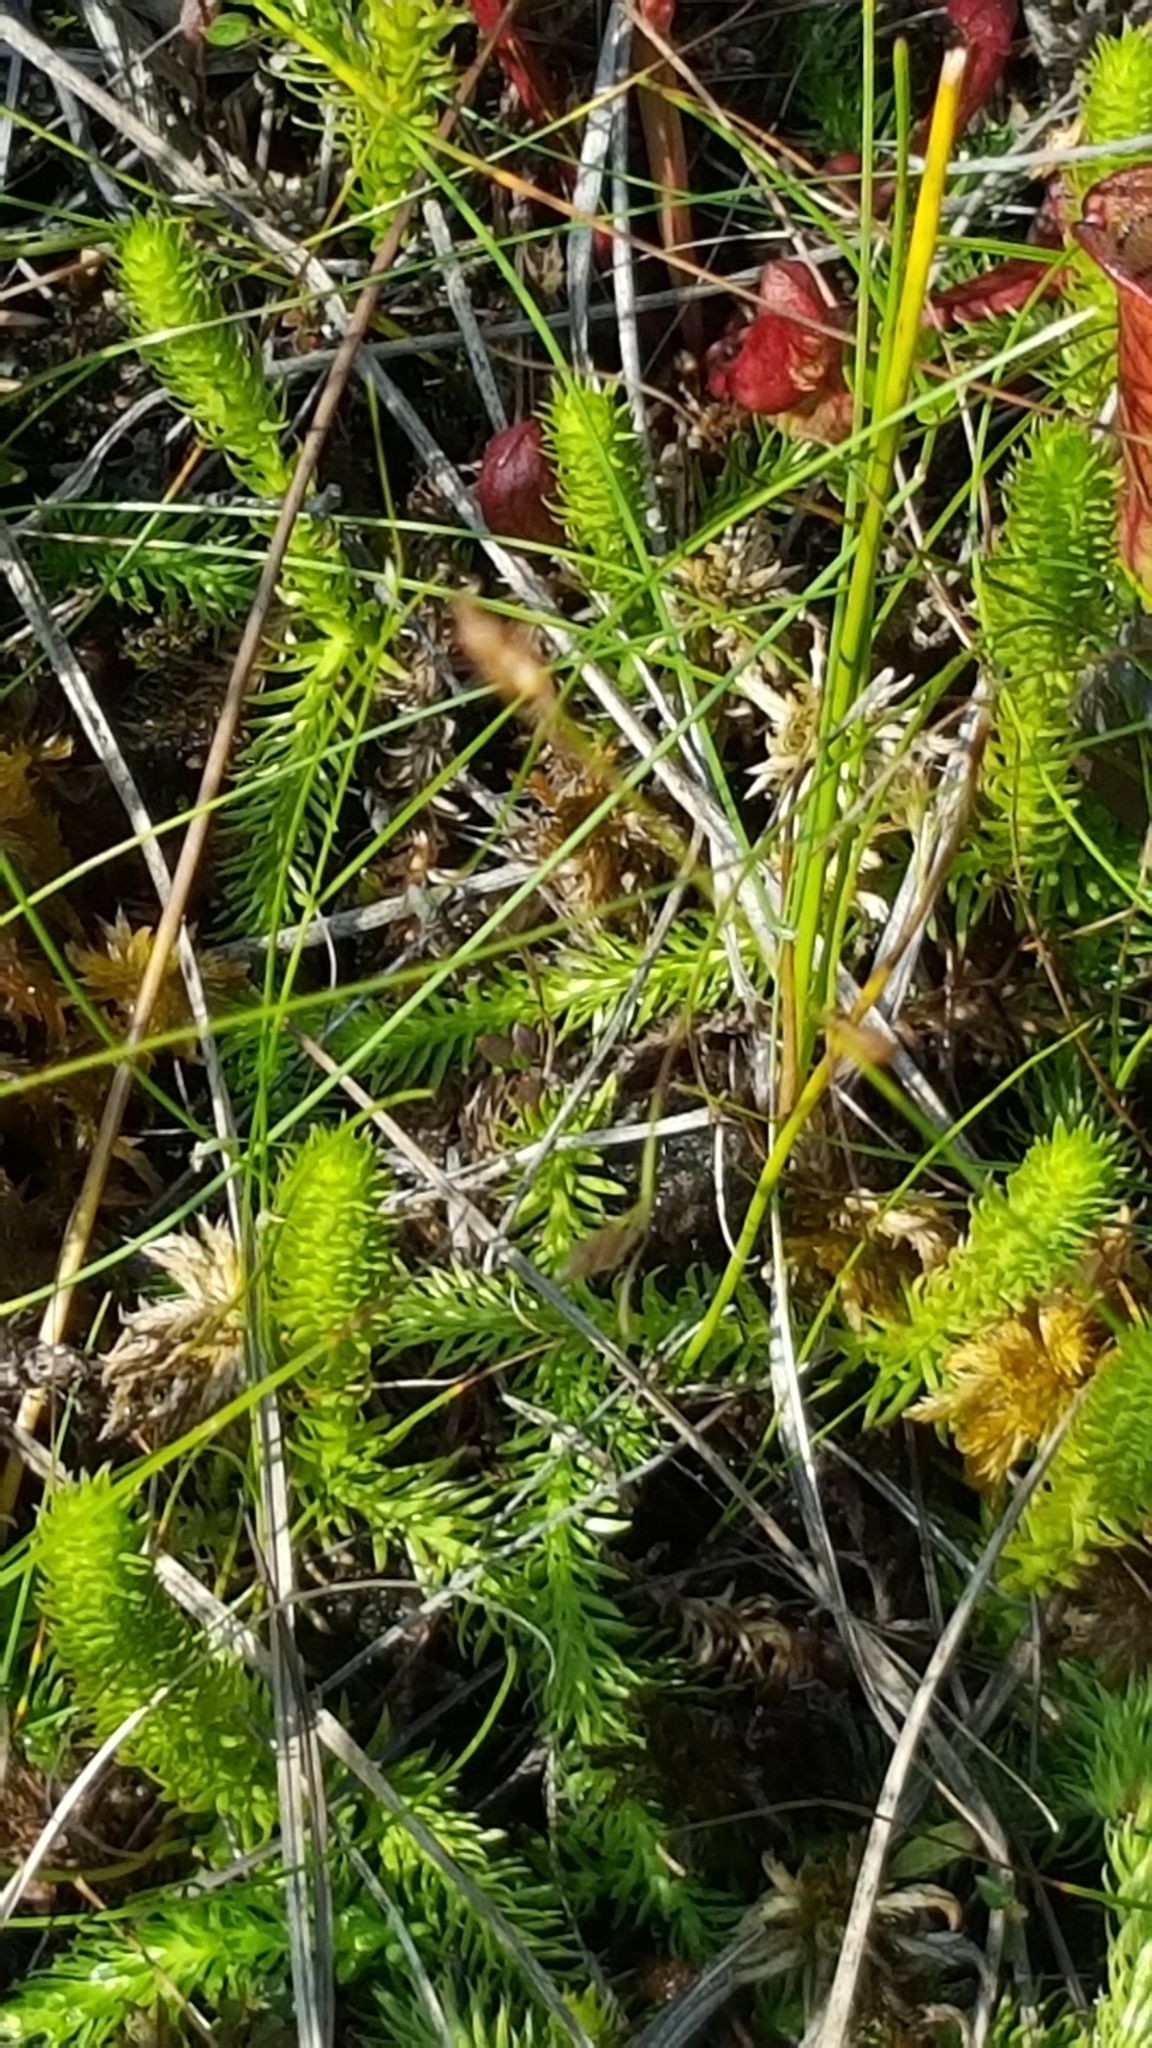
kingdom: Plantae
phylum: Tracheophyta
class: Lycopodiopsida
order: Lycopodiales
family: Lycopodiaceae
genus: Lycopodiella
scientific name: Lycopodiella inundata
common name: Marsh clubmoss
